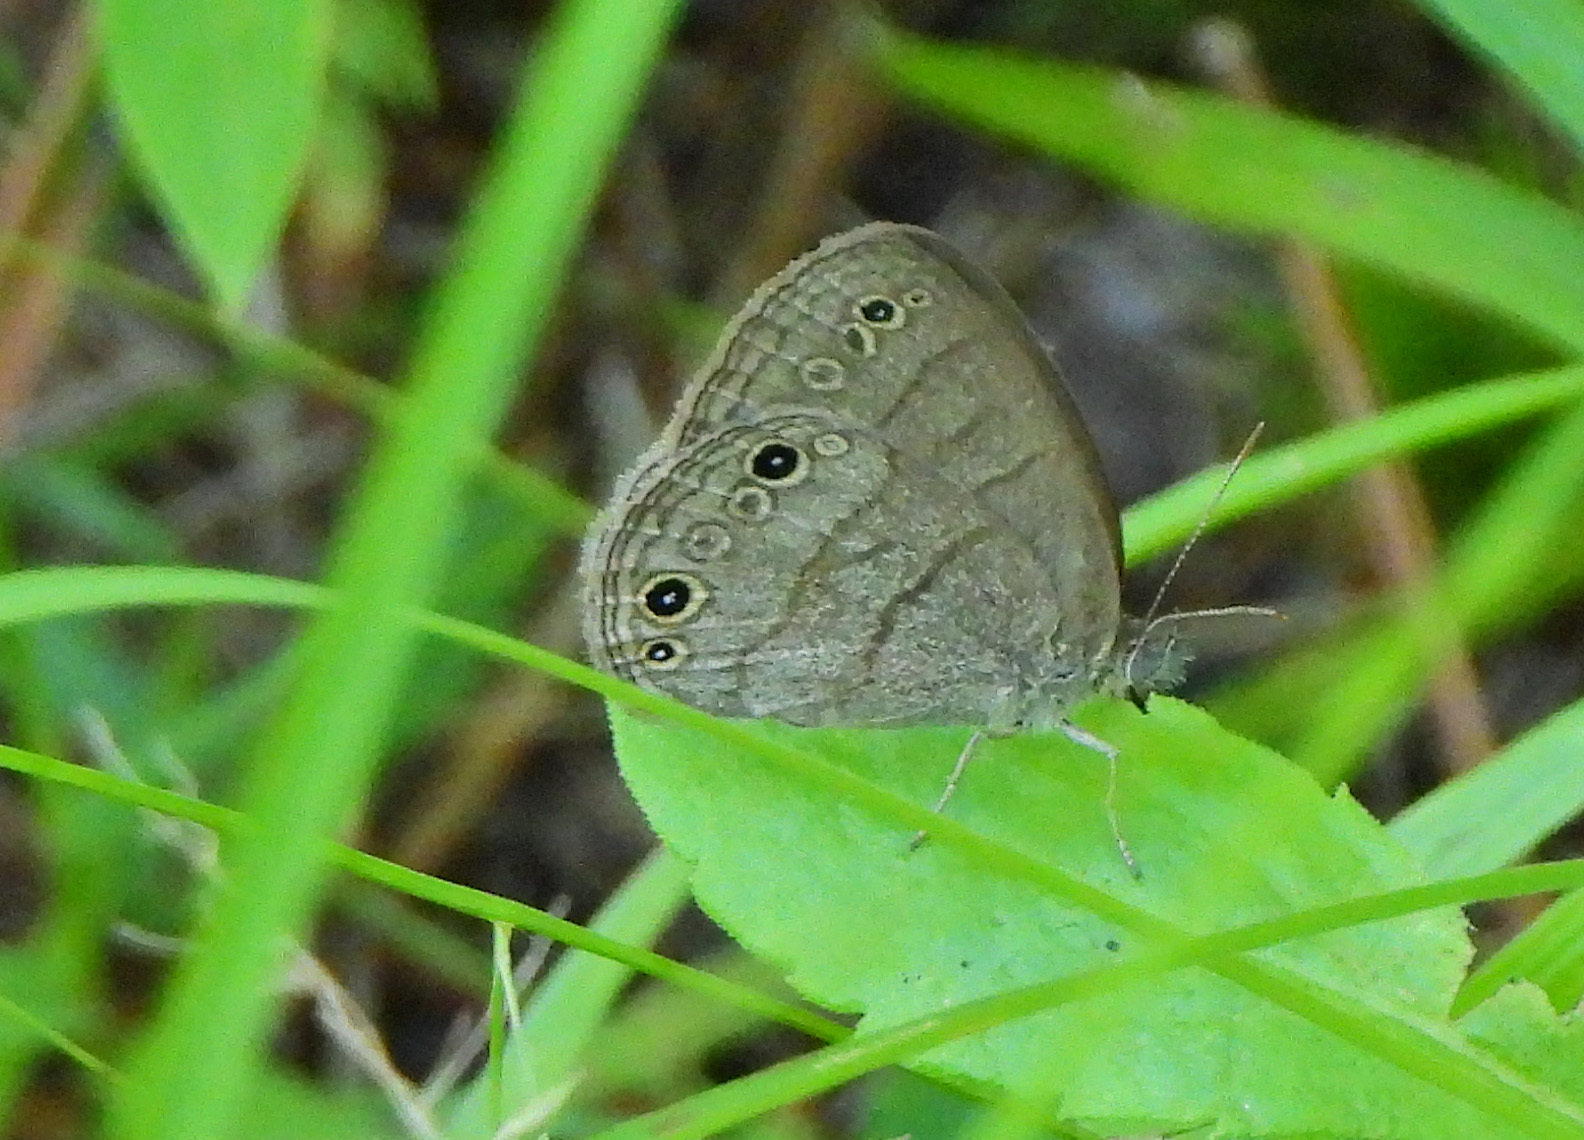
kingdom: Animalia
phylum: Arthropoda
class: Insecta
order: Lepidoptera
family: Nymphalidae
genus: Hermeuptychia
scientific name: Hermeuptychia hermes
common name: Hermes satyr
